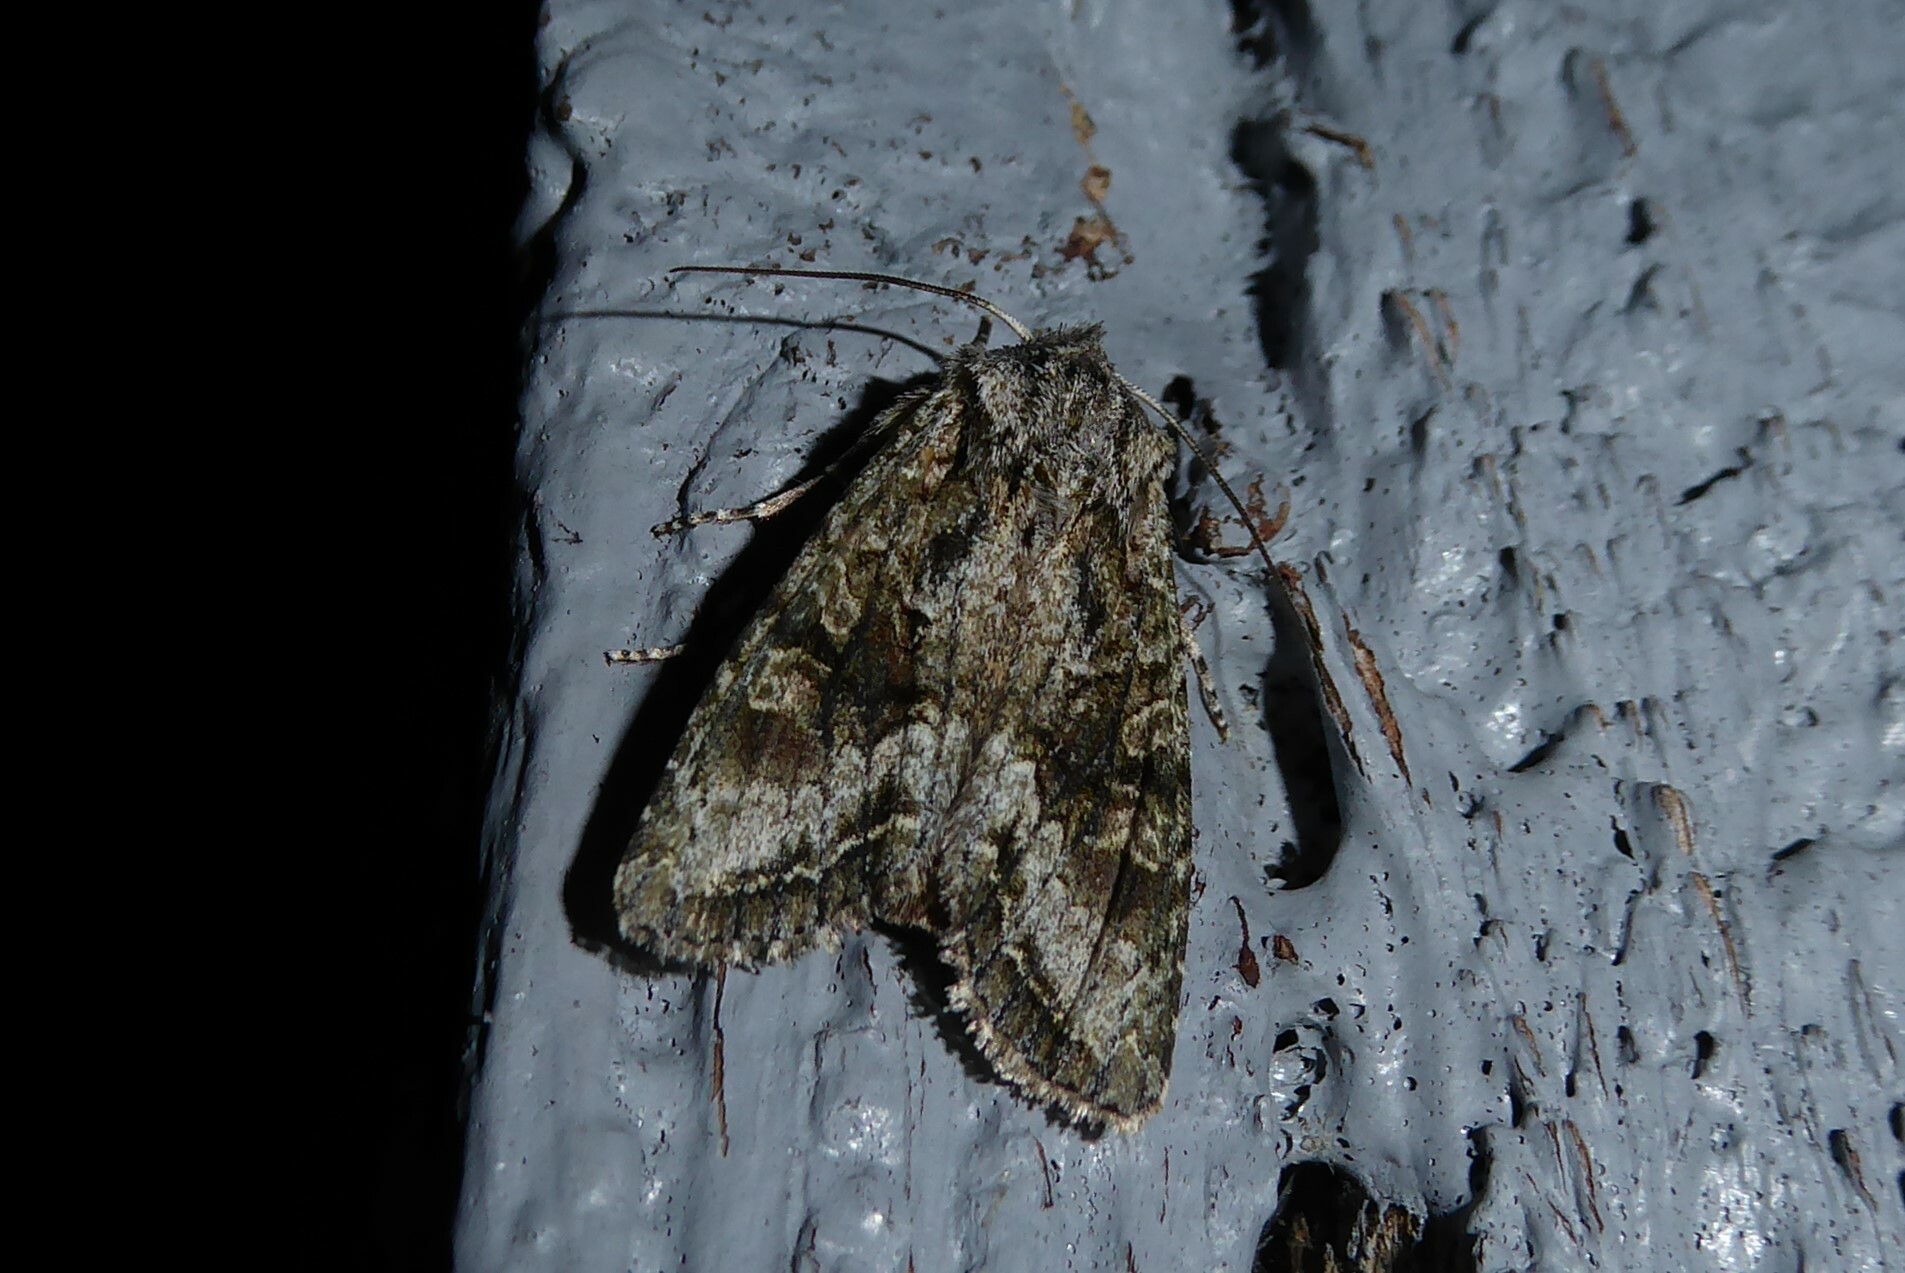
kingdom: Animalia
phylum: Arthropoda
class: Insecta
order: Lepidoptera
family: Noctuidae
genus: Ichneutica
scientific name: Ichneutica mutans
